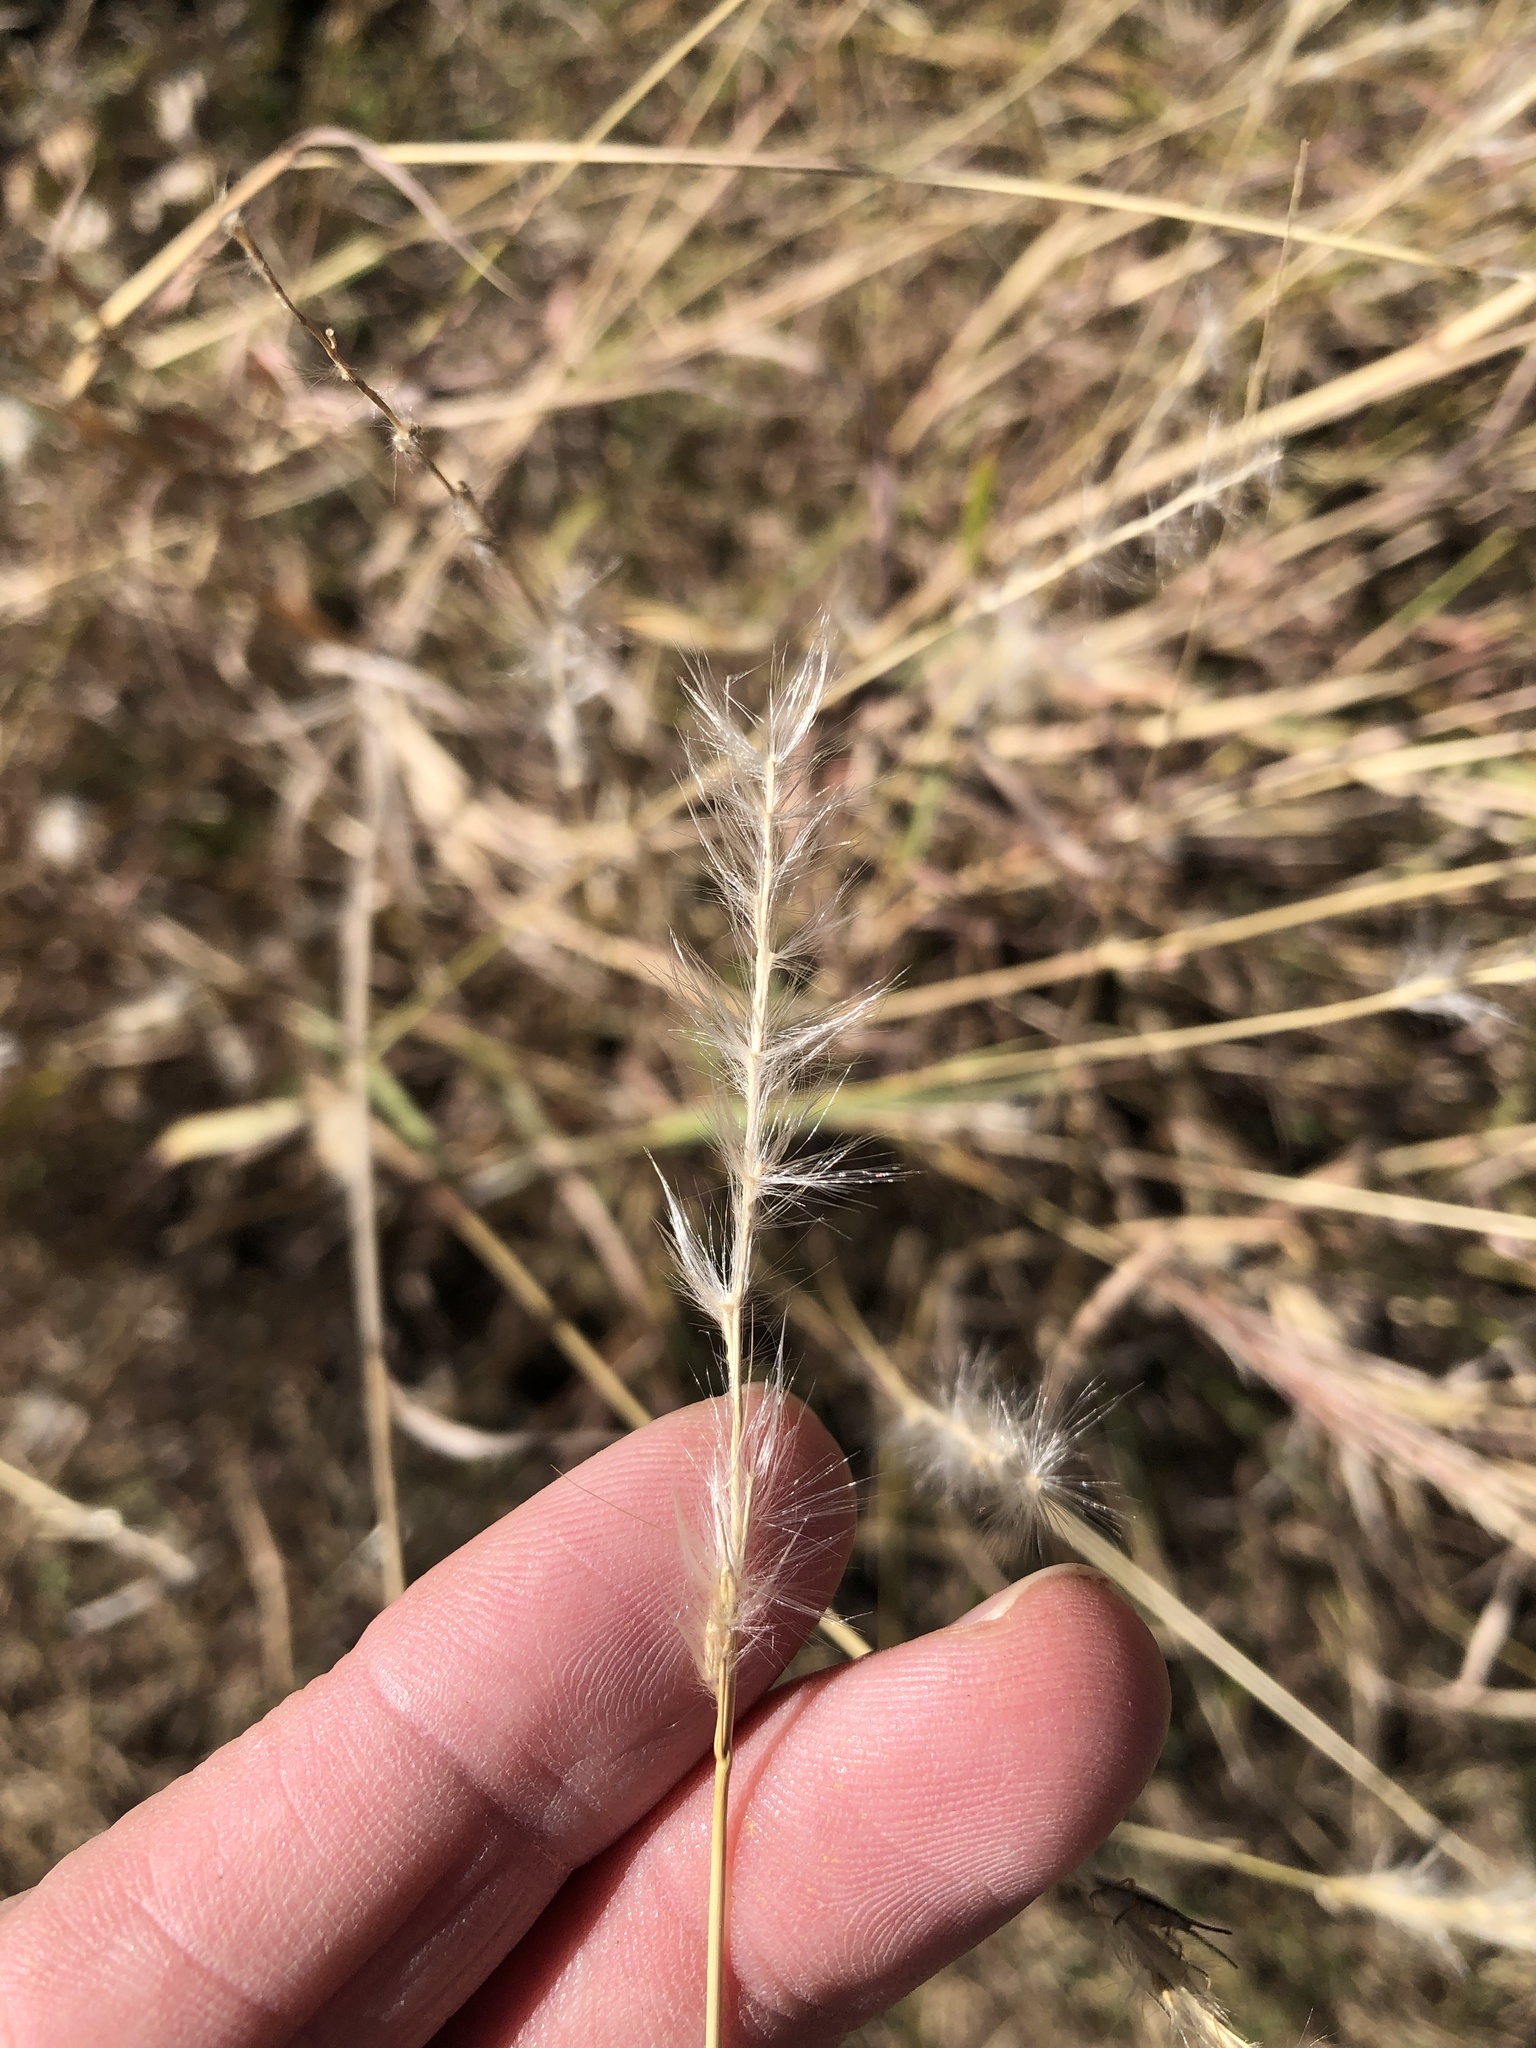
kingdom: Plantae
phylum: Tracheophyta
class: Liliopsida
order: Poales
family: Poaceae
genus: Bothriochloa
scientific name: Bothriochloa torreyana
